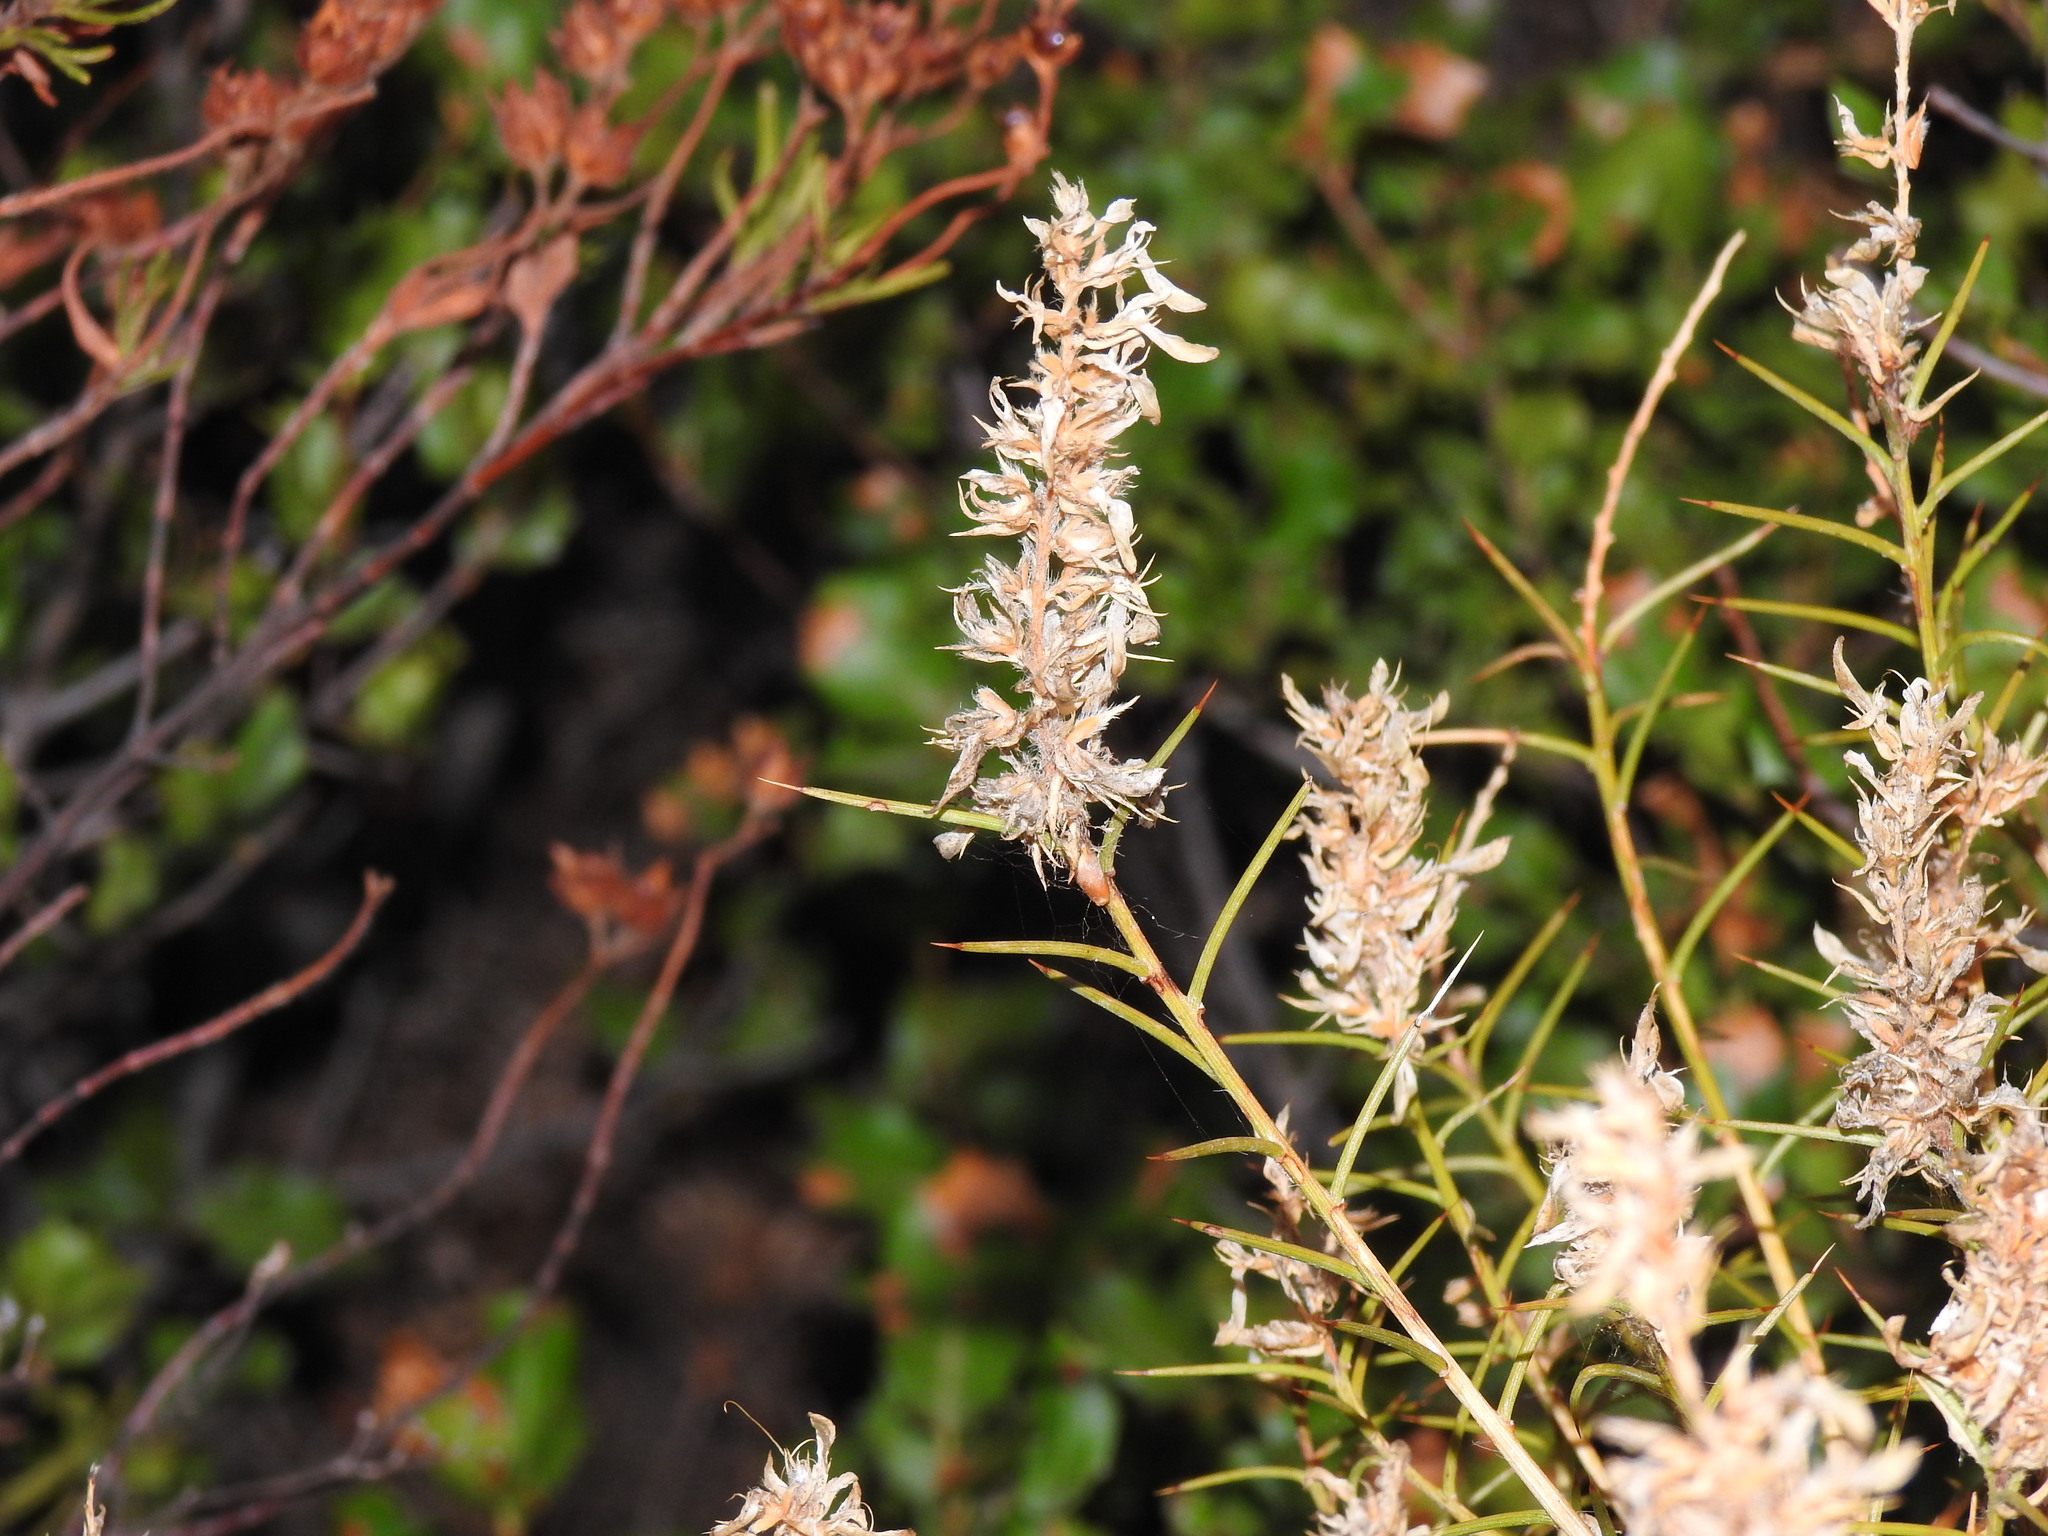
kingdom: Plantae
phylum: Tracheophyta
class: Magnoliopsida
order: Fabales
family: Fabaceae
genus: Genista
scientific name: Genista hirsuta
